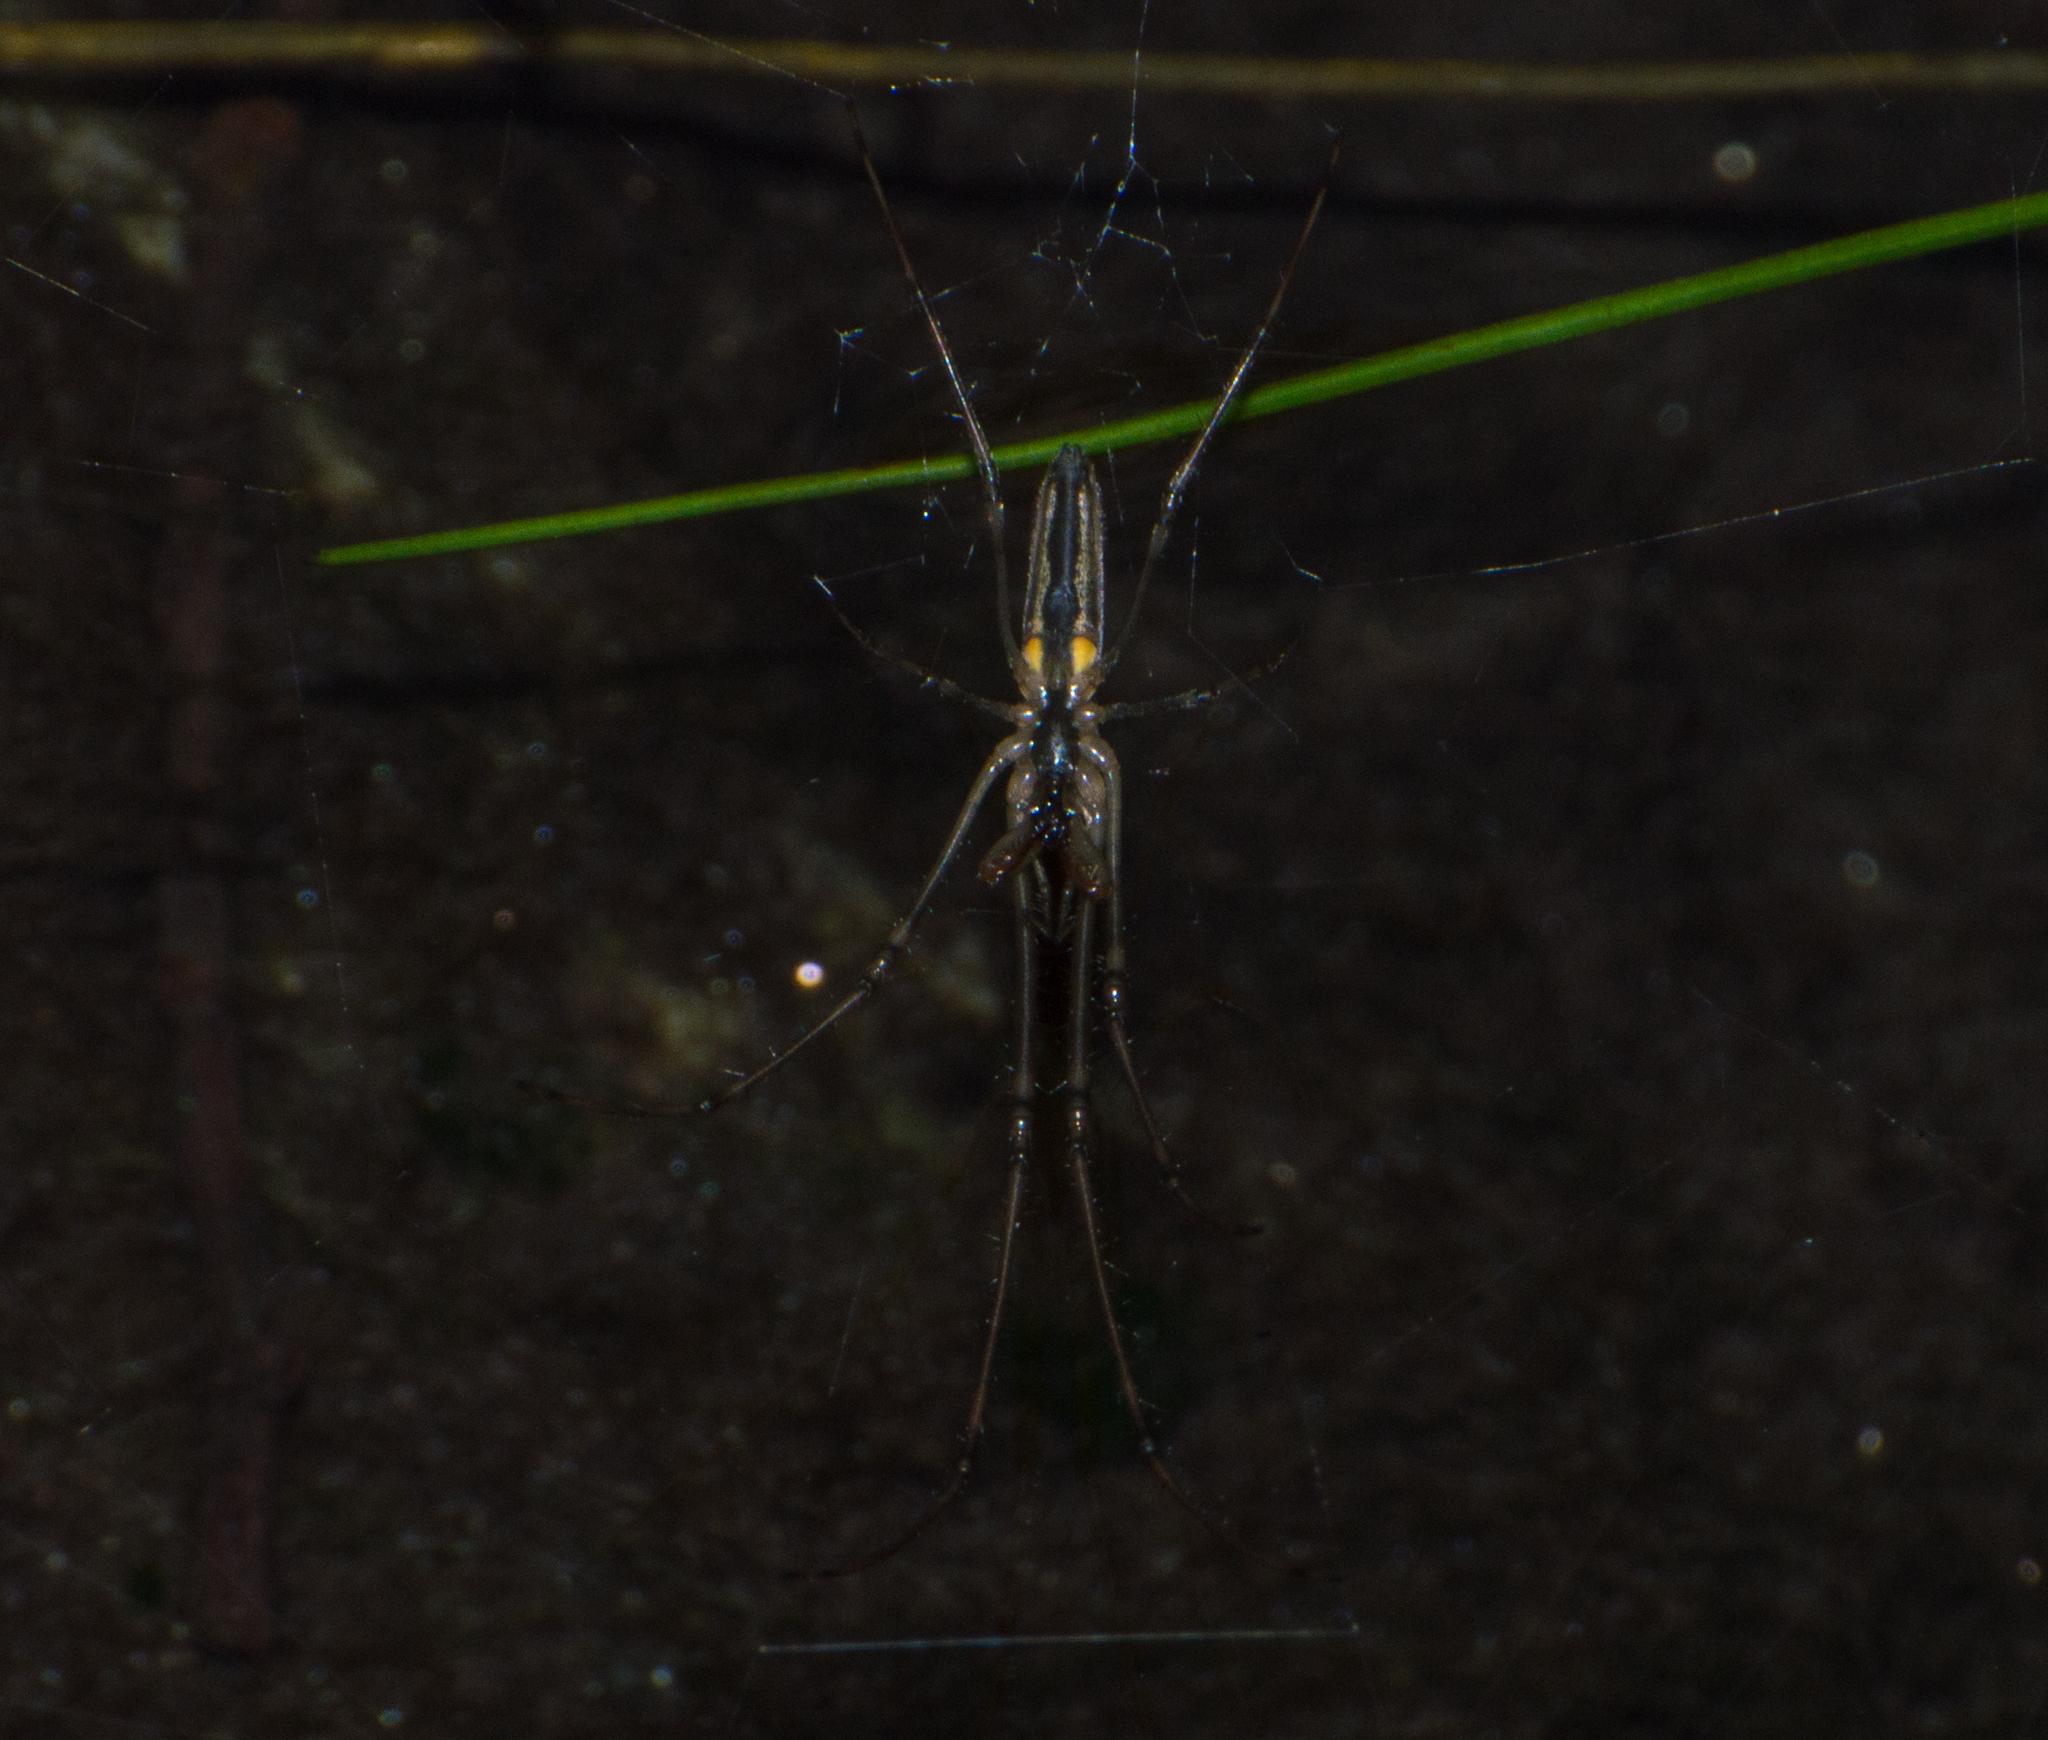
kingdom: Animalia
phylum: Arthropoda
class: Arachnida
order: Araneae
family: Tetragnathidae
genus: Tetragnatha
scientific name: Tetragnatha
